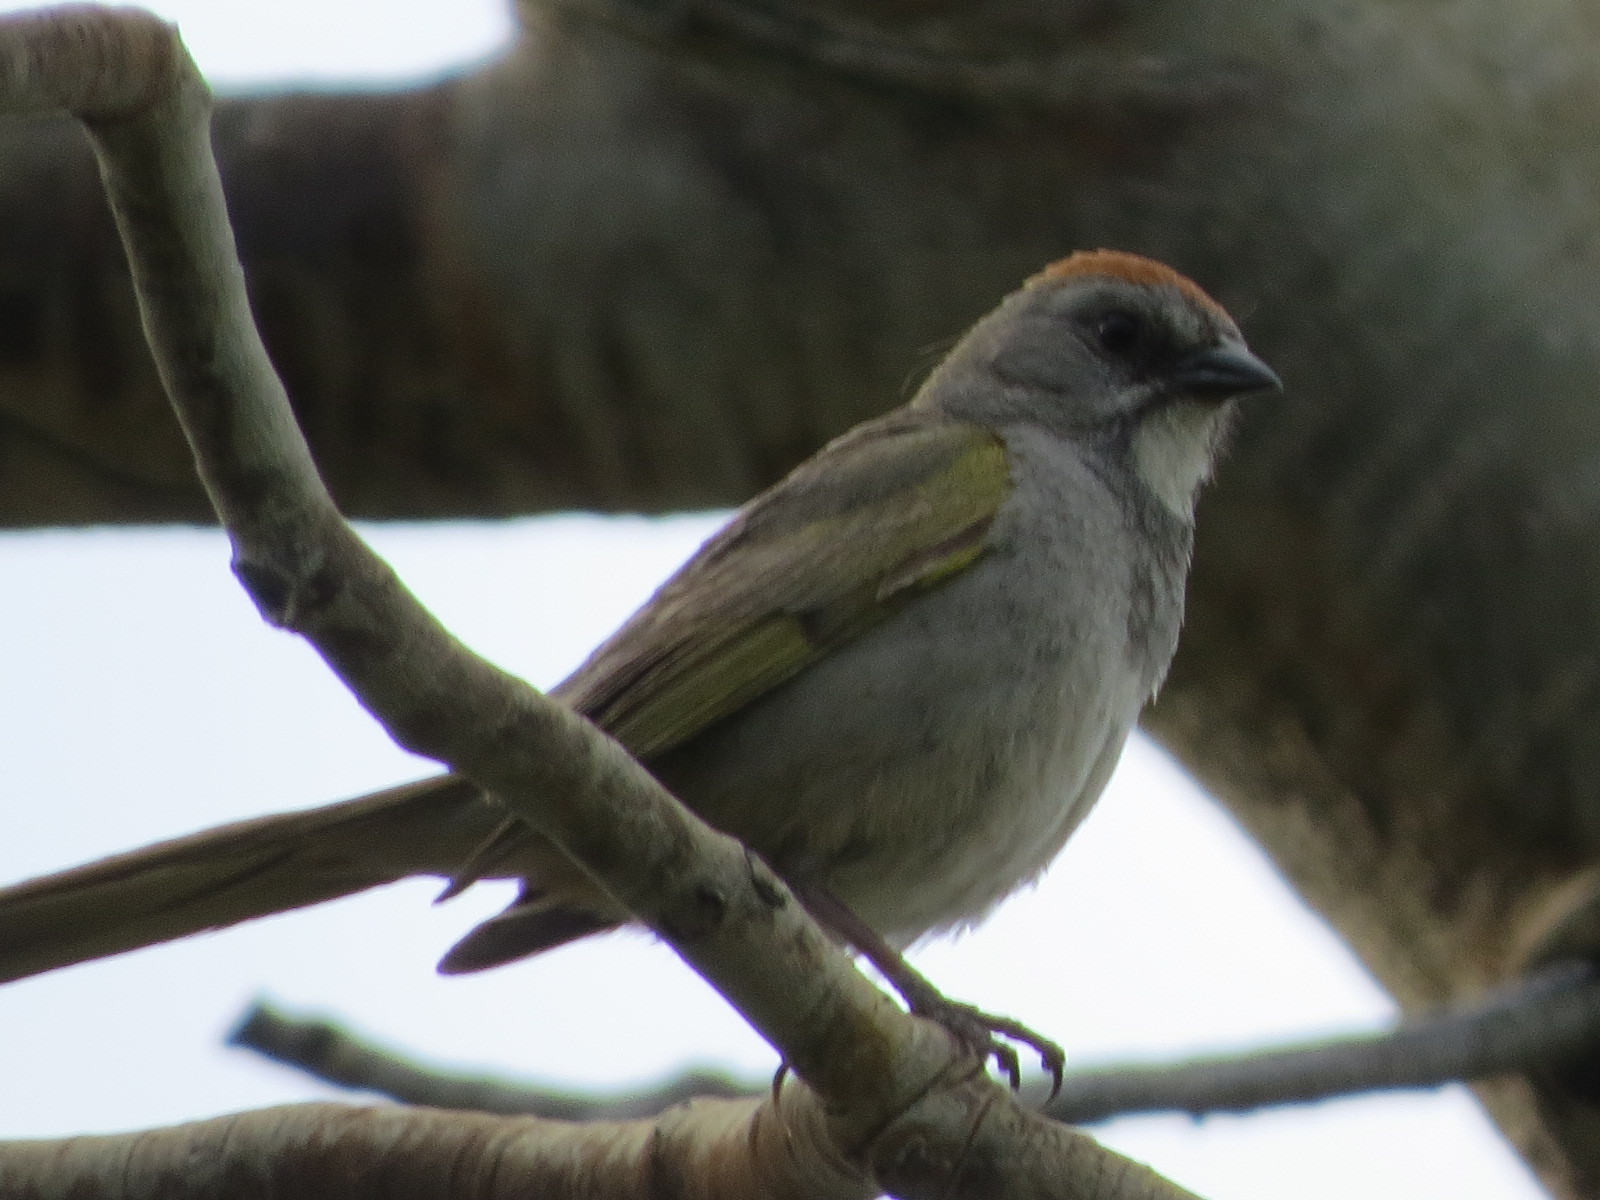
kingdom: Animalia
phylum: Chordata
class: Aves
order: Passeriformes
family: Passerellidae
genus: Pipilo
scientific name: Pipilo chlorurus
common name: Green-tailed towhee
